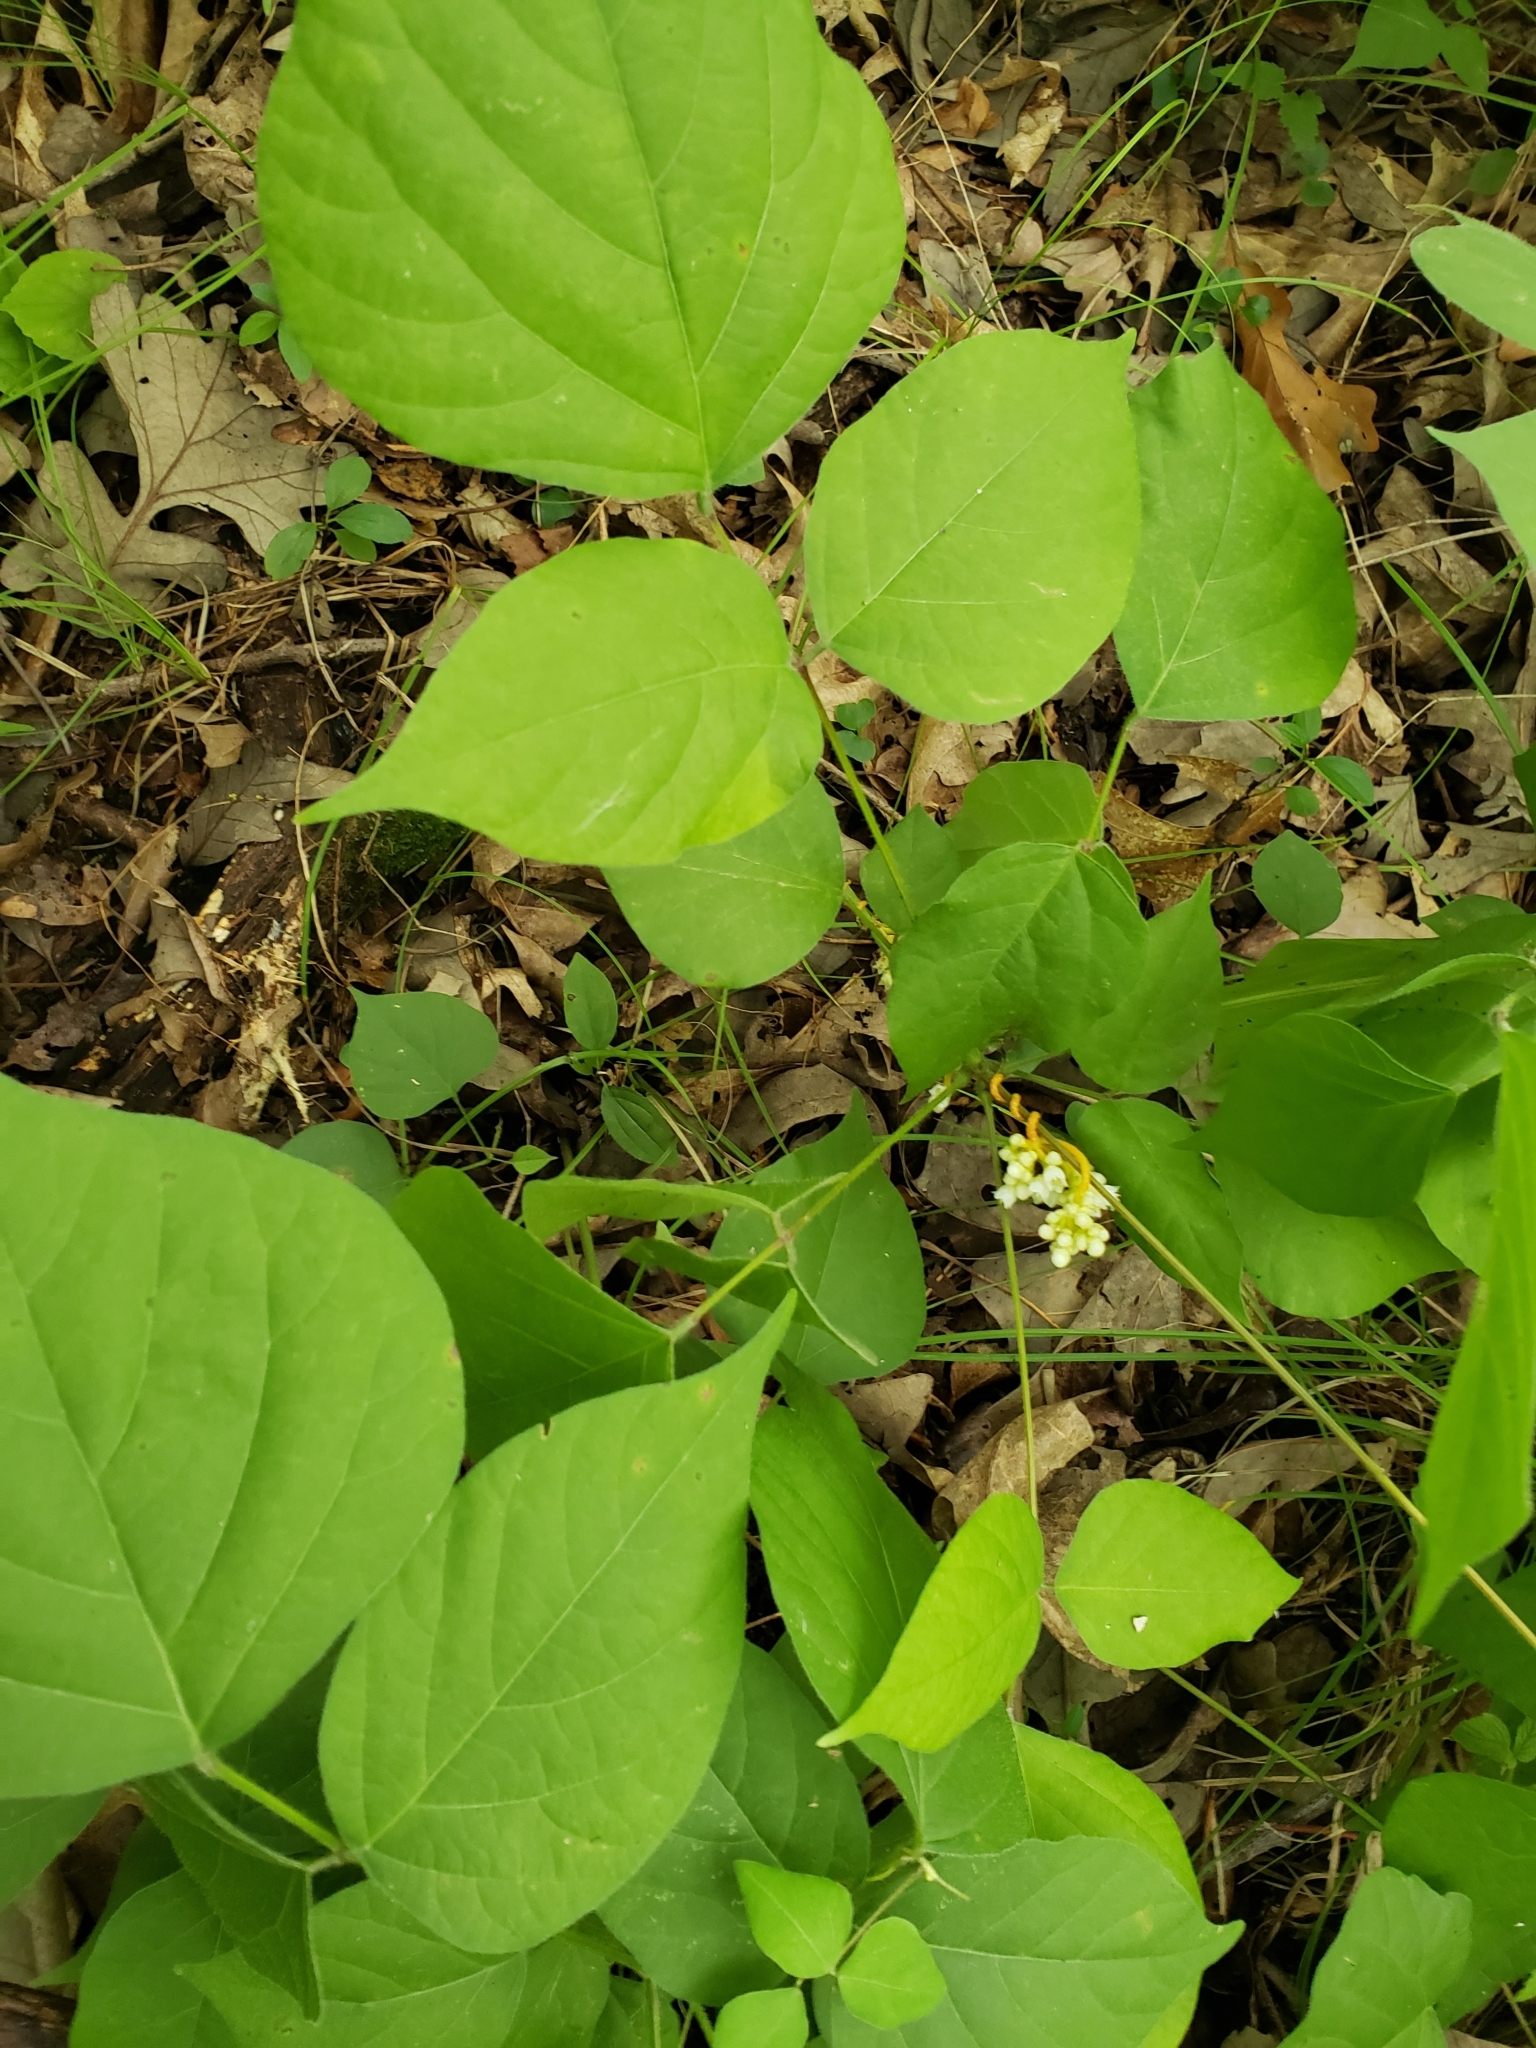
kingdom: Plantae
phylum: Tracheophyta
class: Magnoliopsida
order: Fabales
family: Fabaceae
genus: Hylodesmum
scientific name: Hylodesmum glutinosum
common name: Clustered-leaved tick-trefoil
